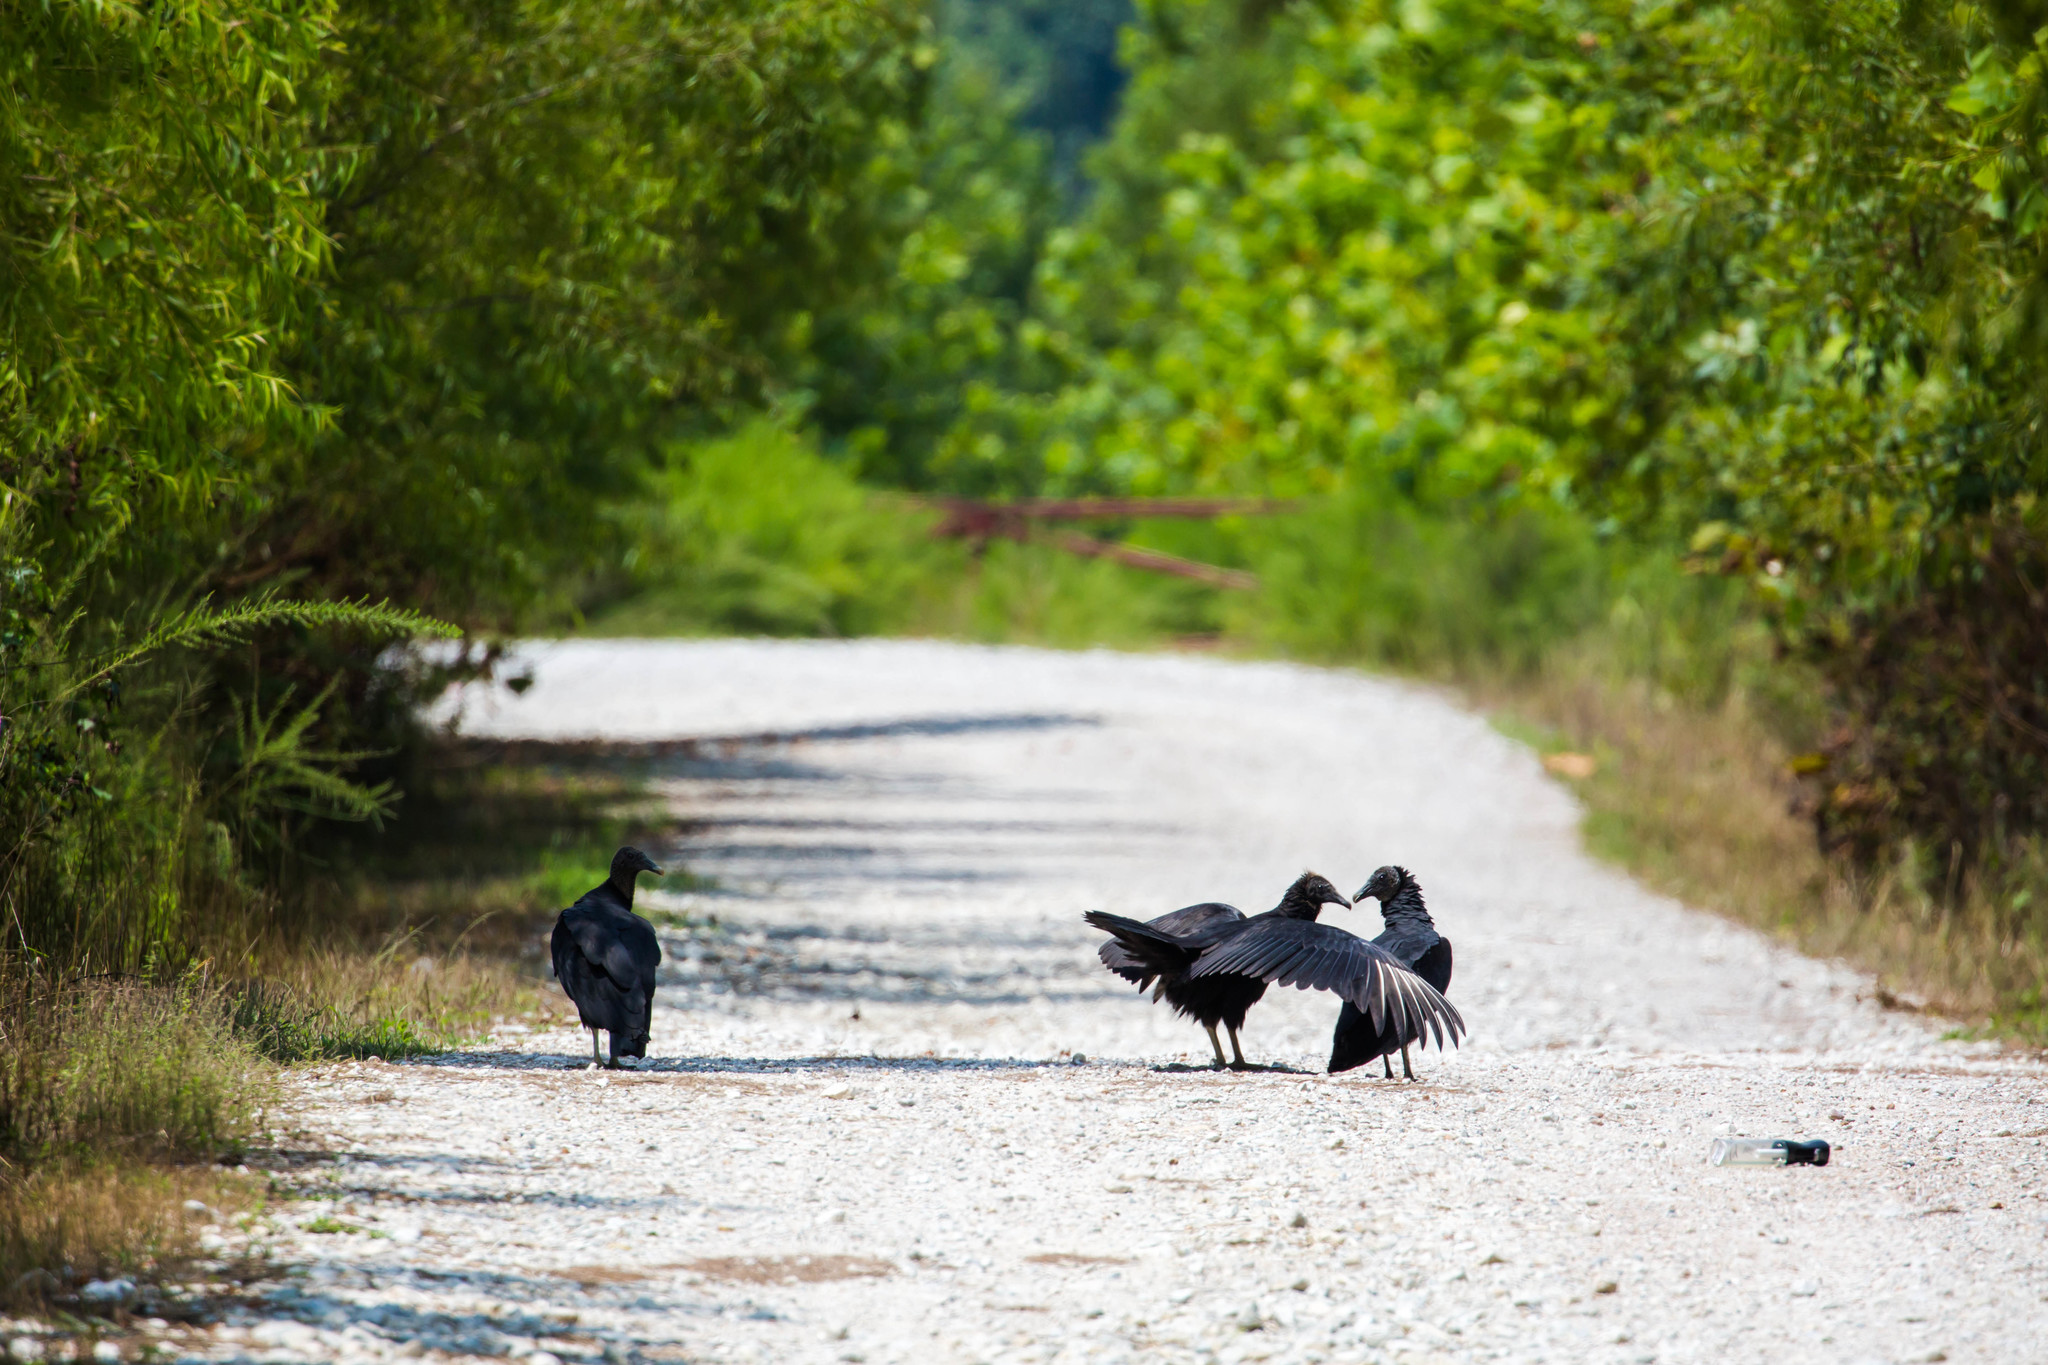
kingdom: Animalia
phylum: Chordata
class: Aves
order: Accipitriformes
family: Cathartidae
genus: Coragyps
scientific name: Coragyps atratus
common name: Black vulture
